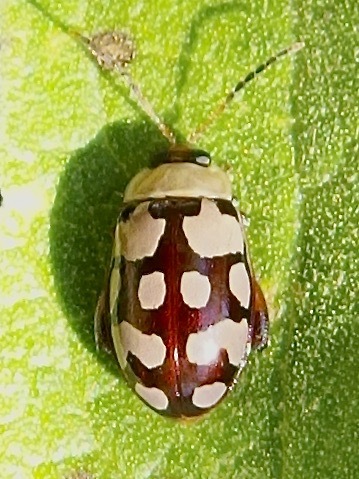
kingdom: Animalia
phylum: Arthropoda
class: Insecta
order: Coleoptera
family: Chrysomelidae
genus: Alagoasa
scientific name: Alagoasa
